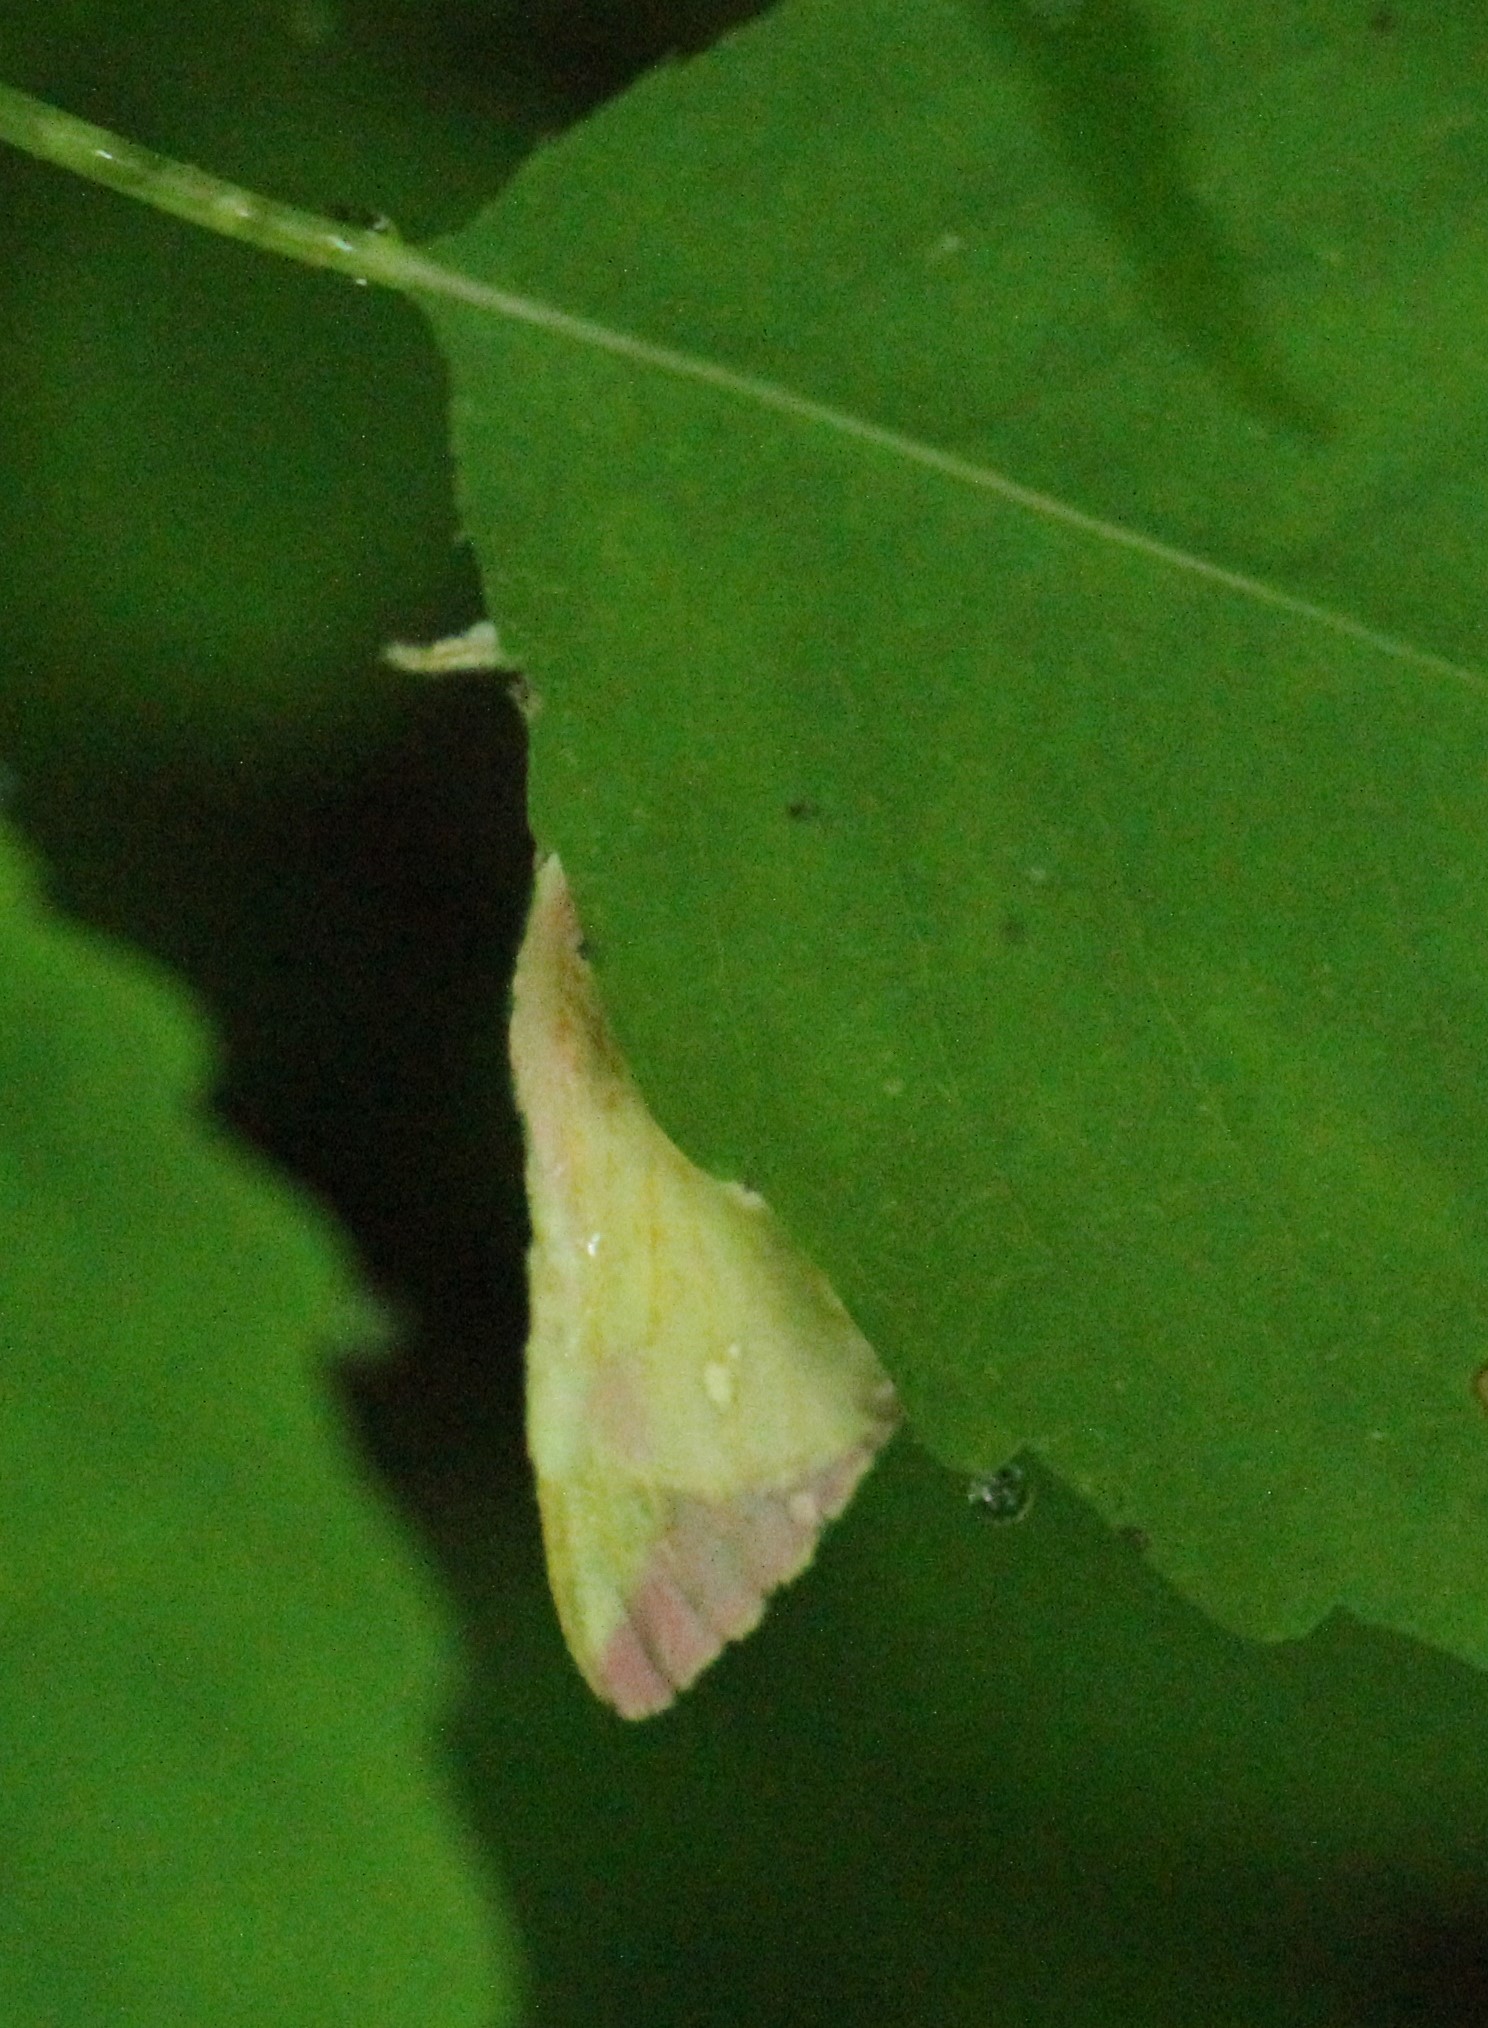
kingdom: Animalia
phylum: Arthropoda
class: Insecta
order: Lepidoptera
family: Saturniidae
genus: Dryocampa
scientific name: Dryocampa rubicunda
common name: Rosy maple moth
